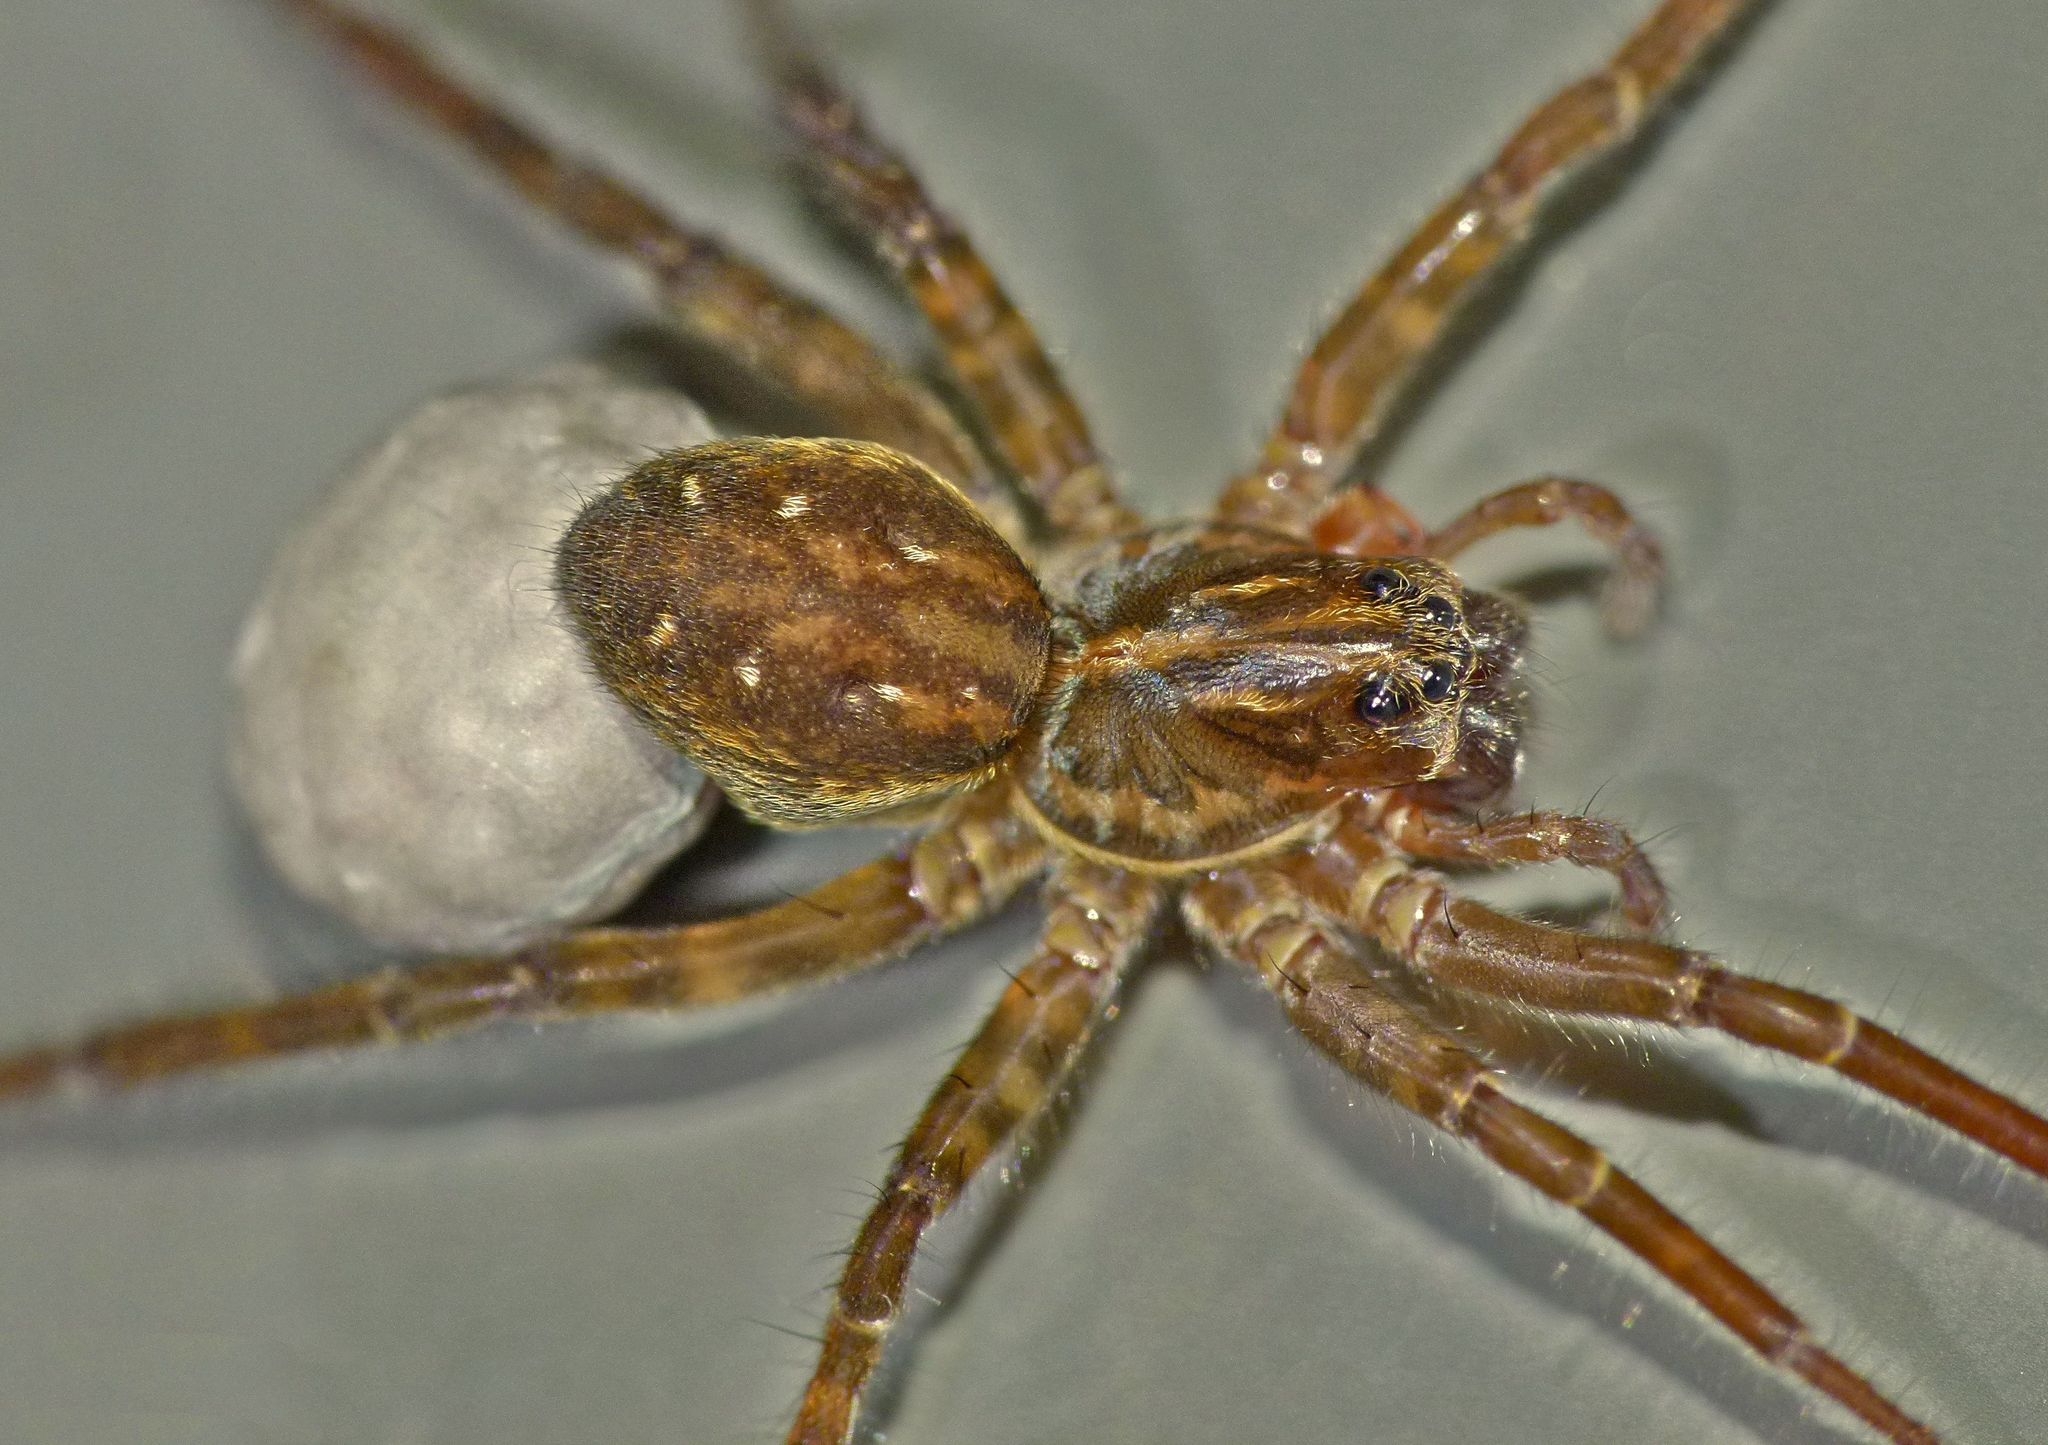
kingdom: Animalia
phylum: Arthropoda
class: Arachnida
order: Araneae
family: Lycosidae
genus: Allotrochosina
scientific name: Allotrochosina schauinslandi
